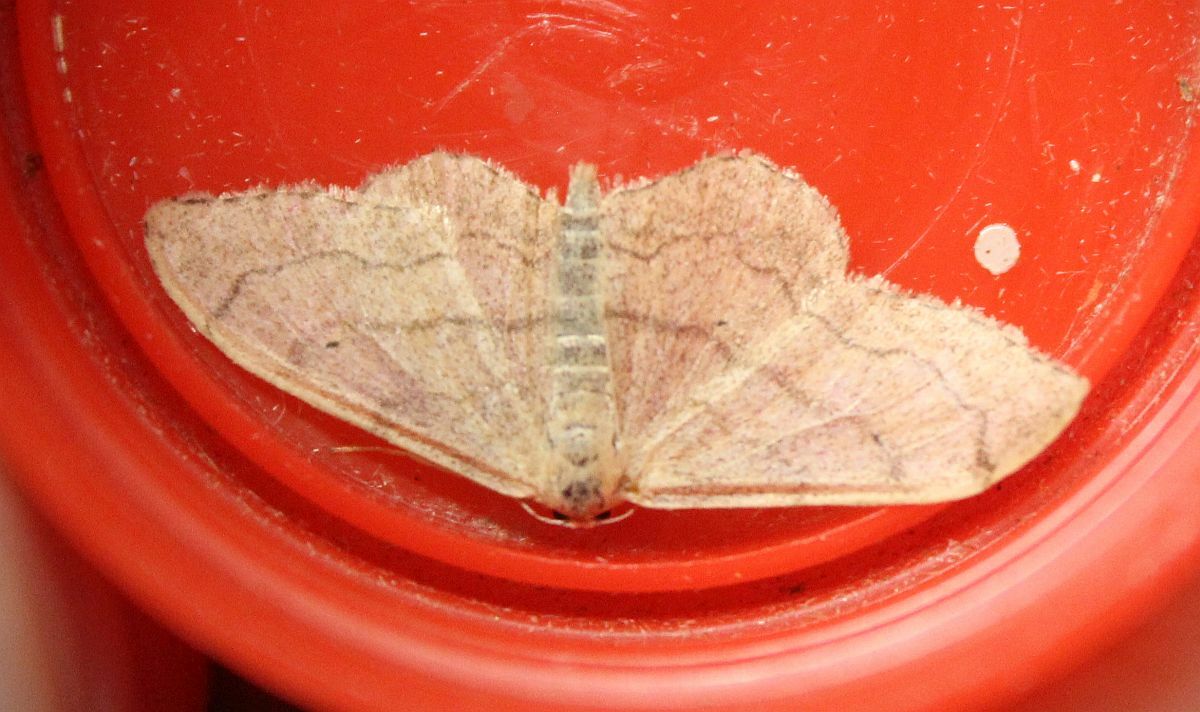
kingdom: Animalia
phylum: Arthropoda
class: Insecta
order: Lepidoptera
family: Geometridae
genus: Idaea
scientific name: Idaea aversata
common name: Riband wave
